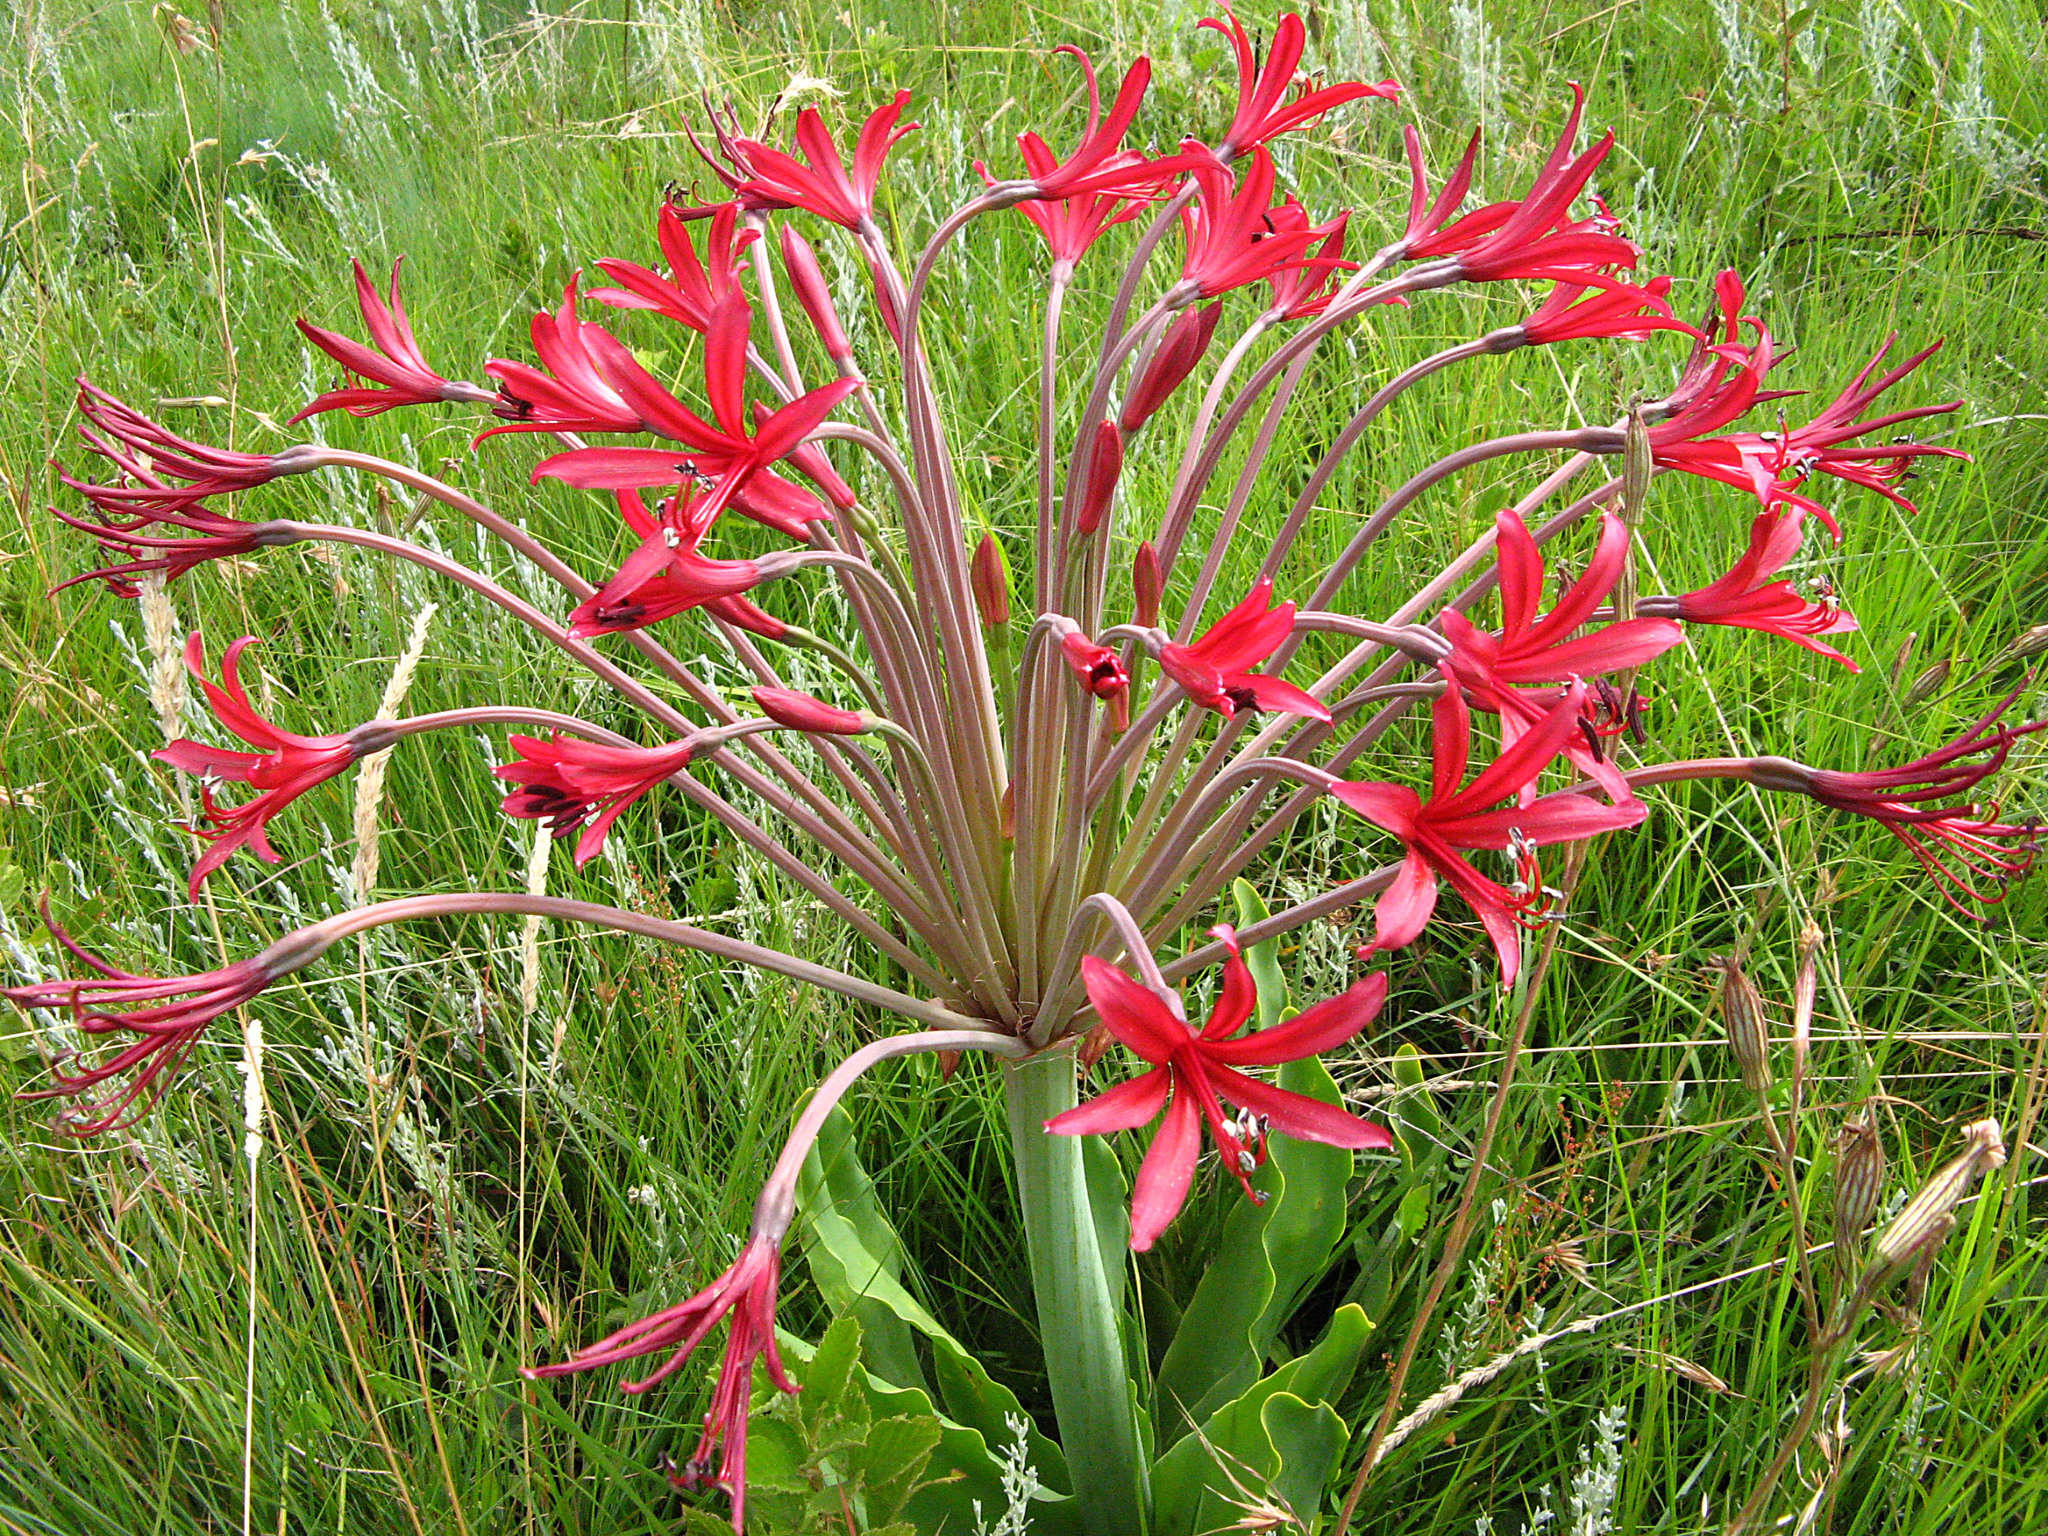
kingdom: Plantae
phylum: Tracheophyta
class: Liliopsida
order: Asparagales
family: Amaryllidaceae
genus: Brunsvigia
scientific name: Brunsvigia undulata
